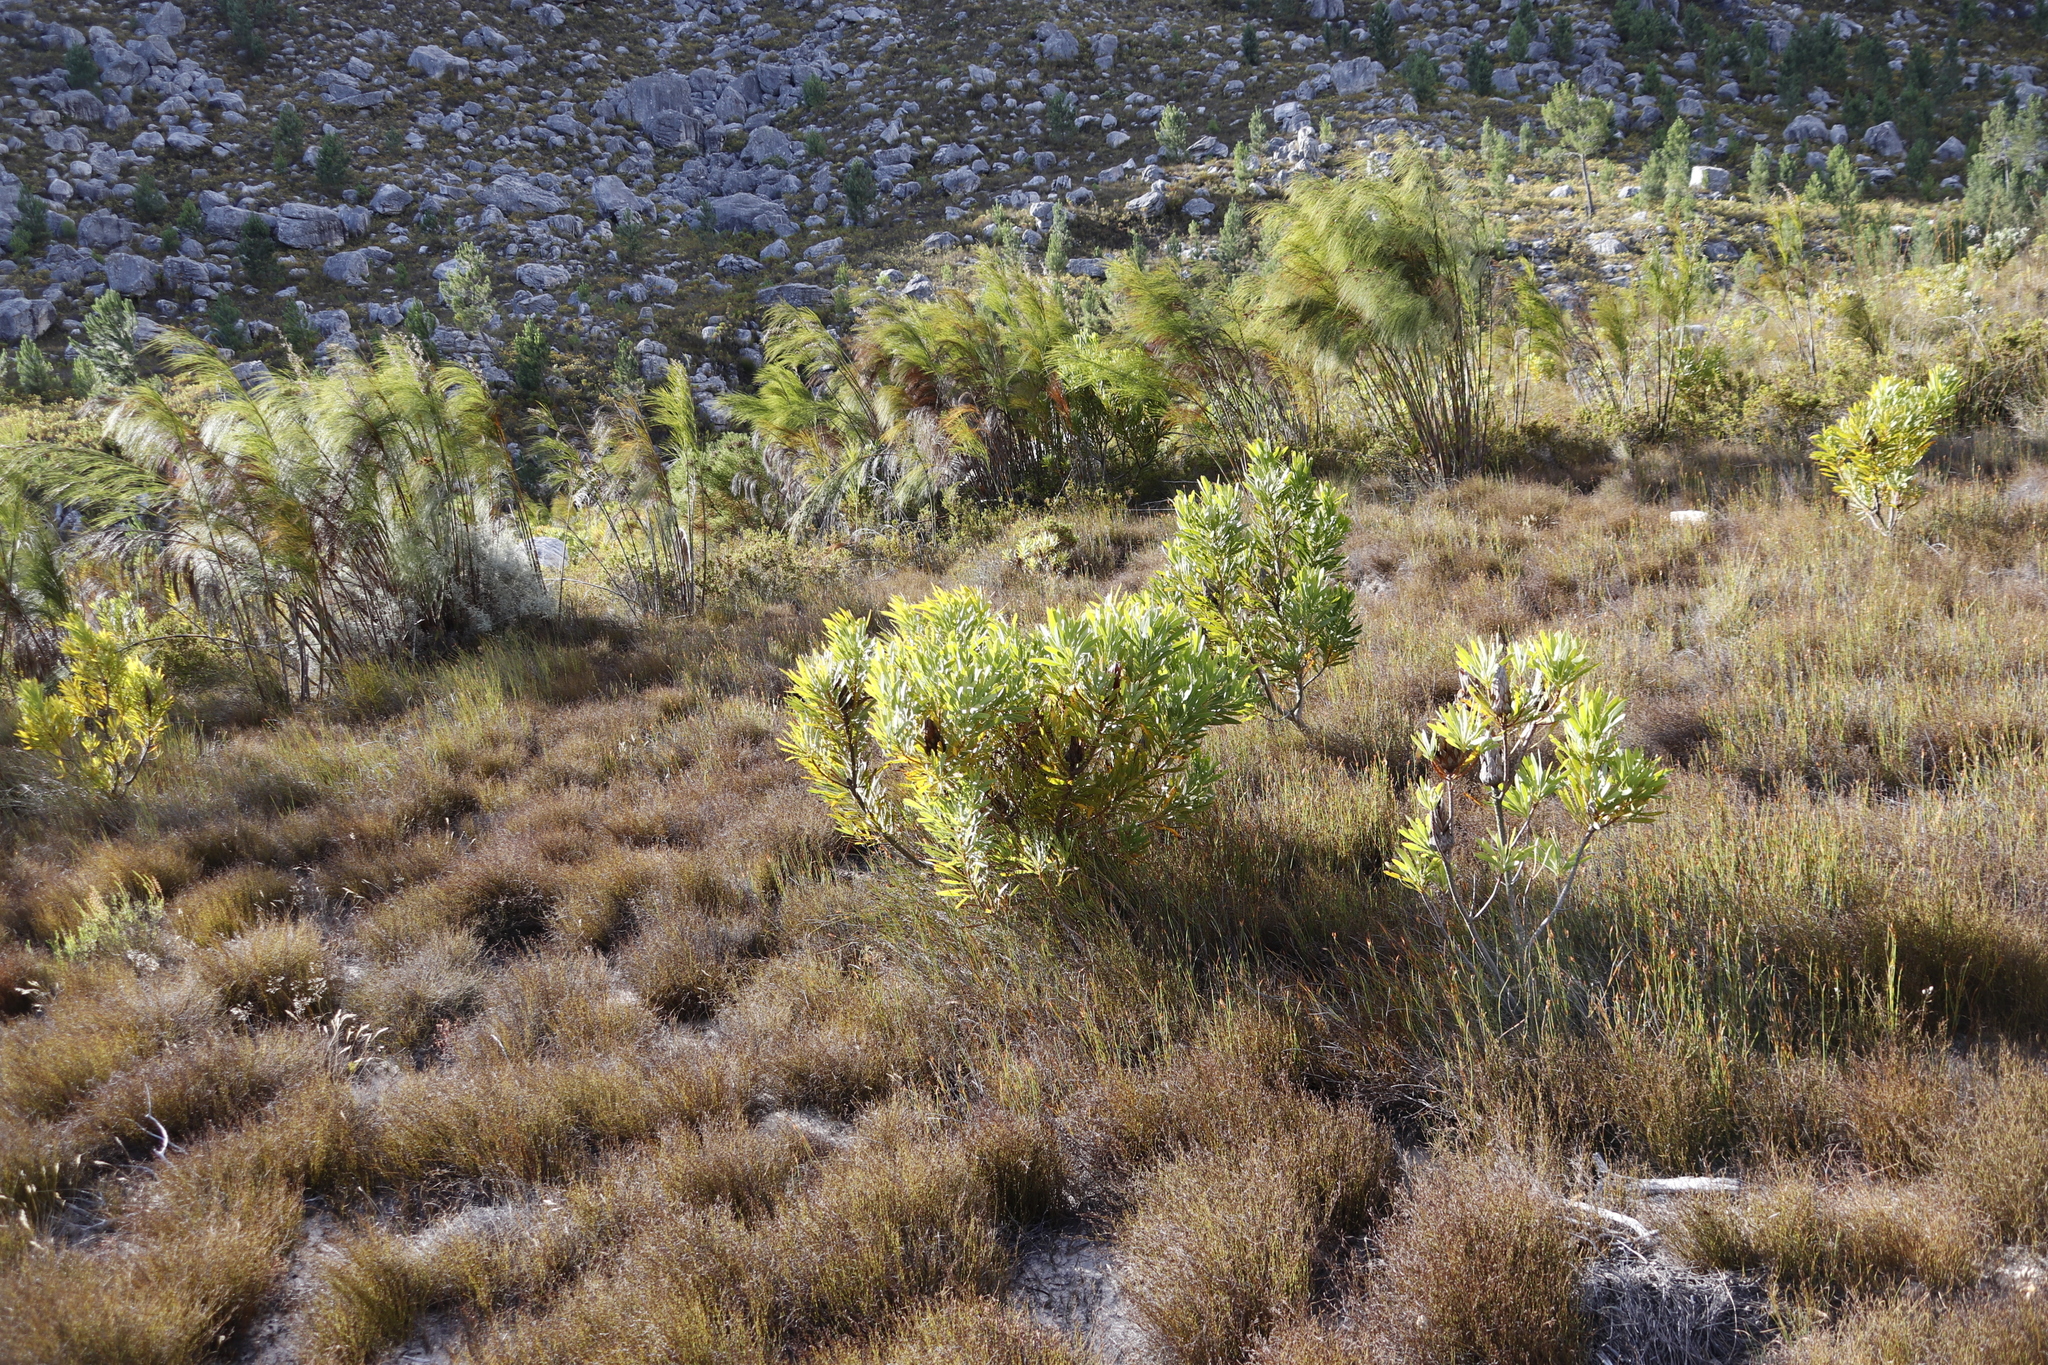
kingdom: Plantae
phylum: Tracheophyta
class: Magnoliopsida
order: Proteales
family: Proteaceae
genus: Protea
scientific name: Protea repens
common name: Sugarbush
